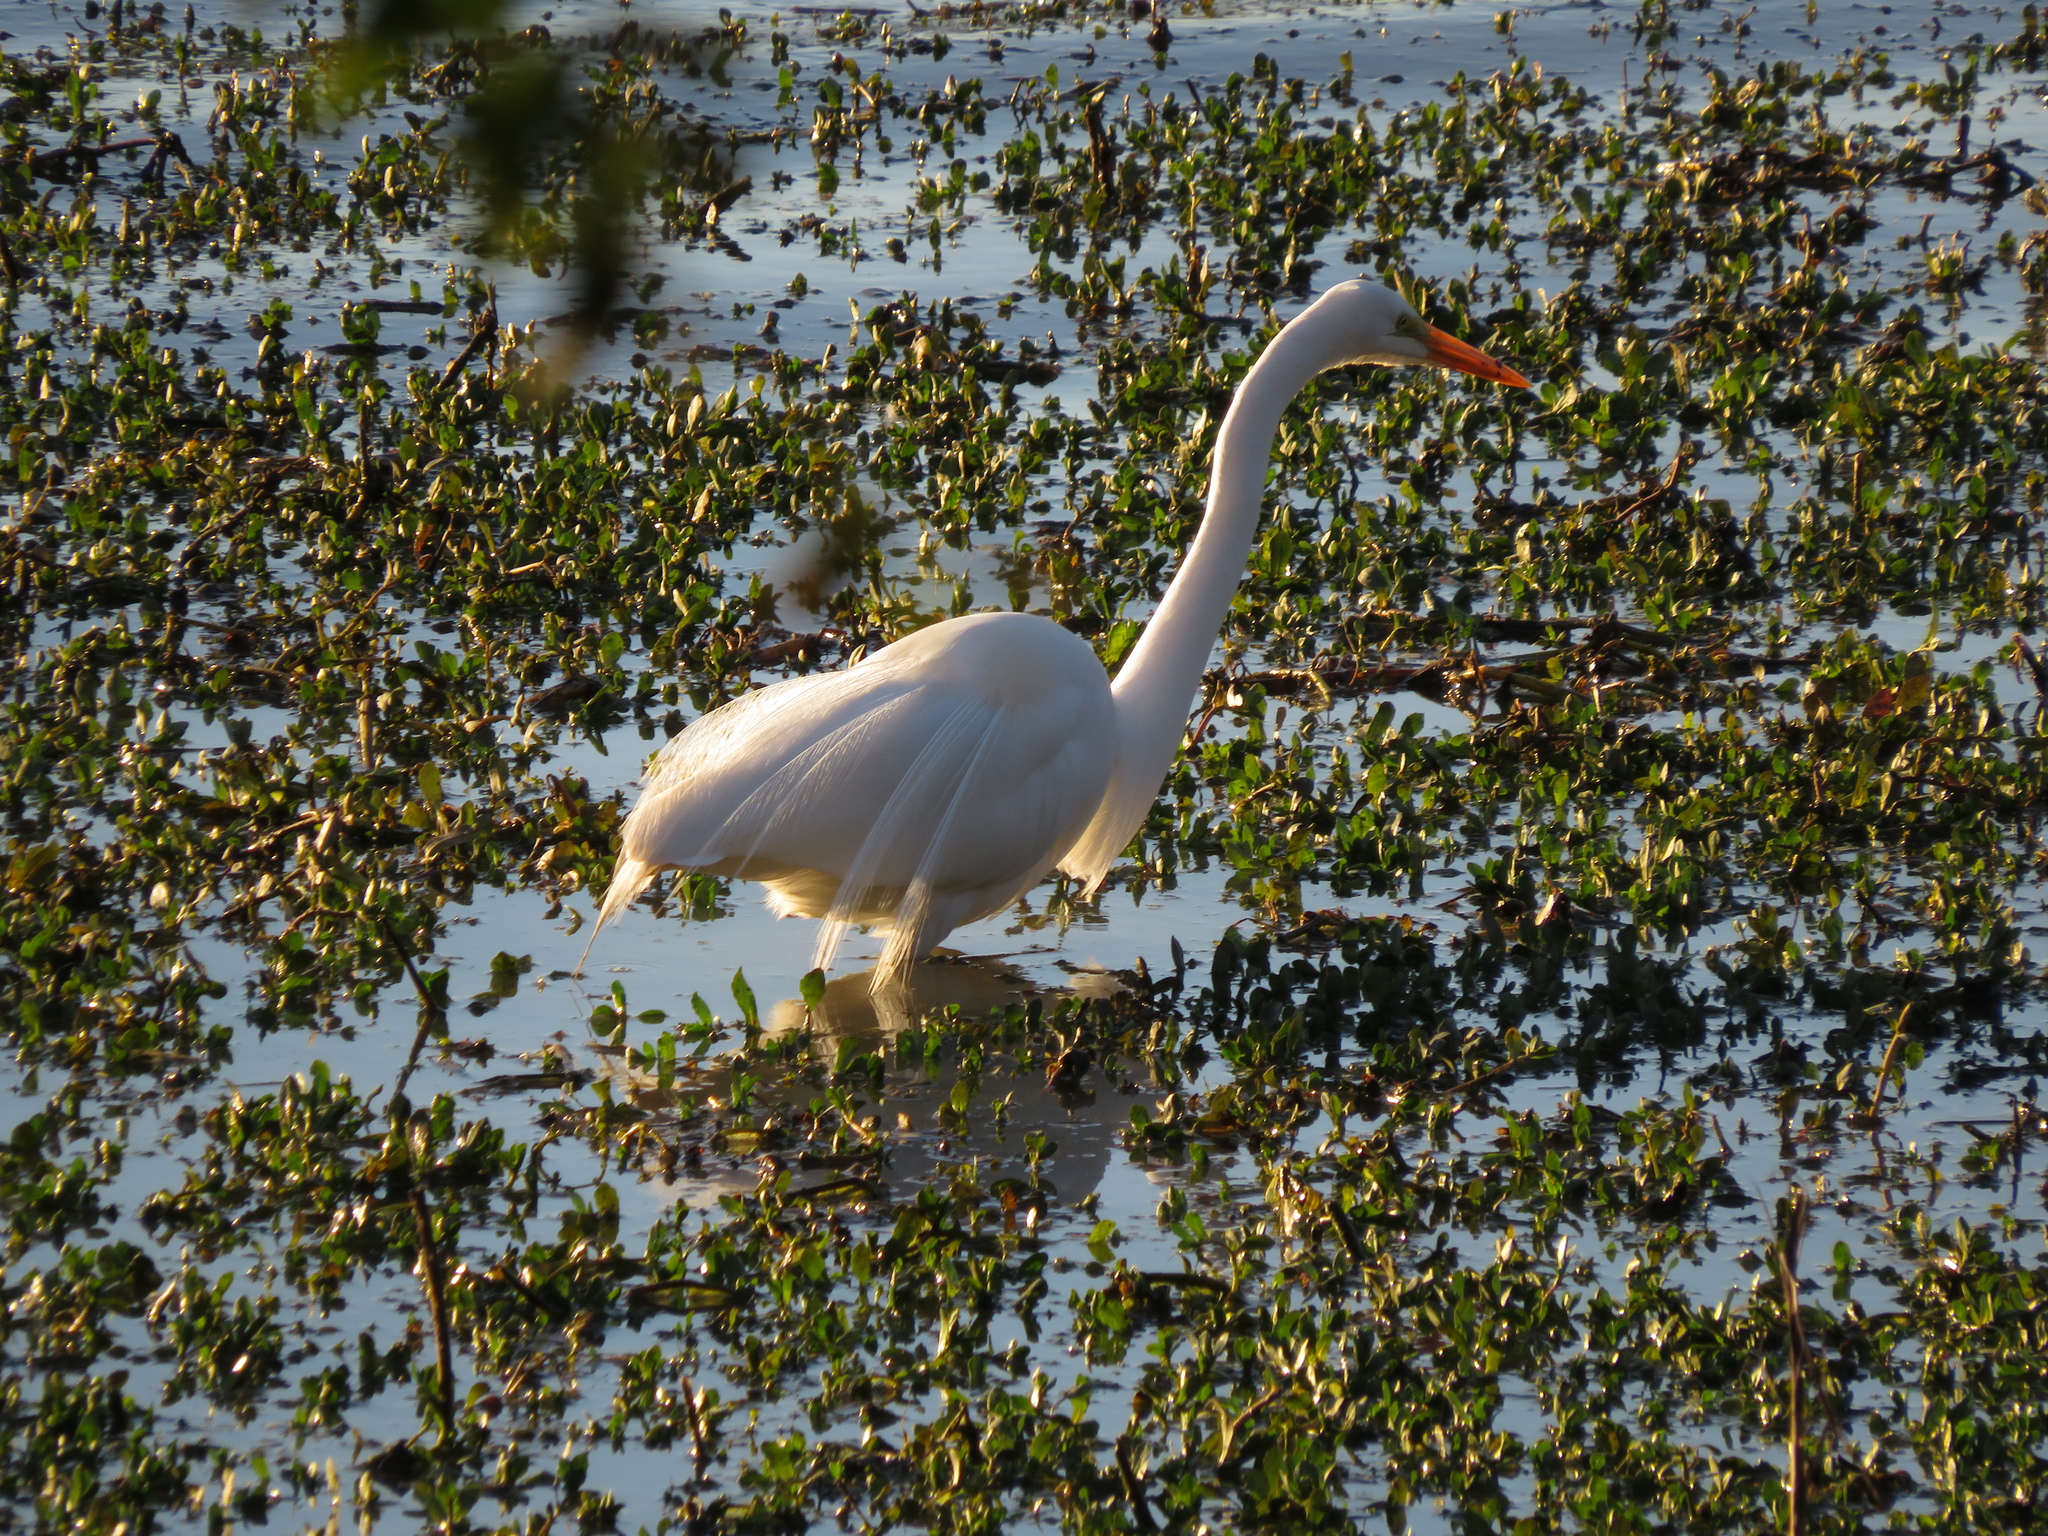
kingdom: Animalia
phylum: Chordata
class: Aves
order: Pelecaniformes
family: Ardeidae
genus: Ardea
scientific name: Ardea alba
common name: Great egret
